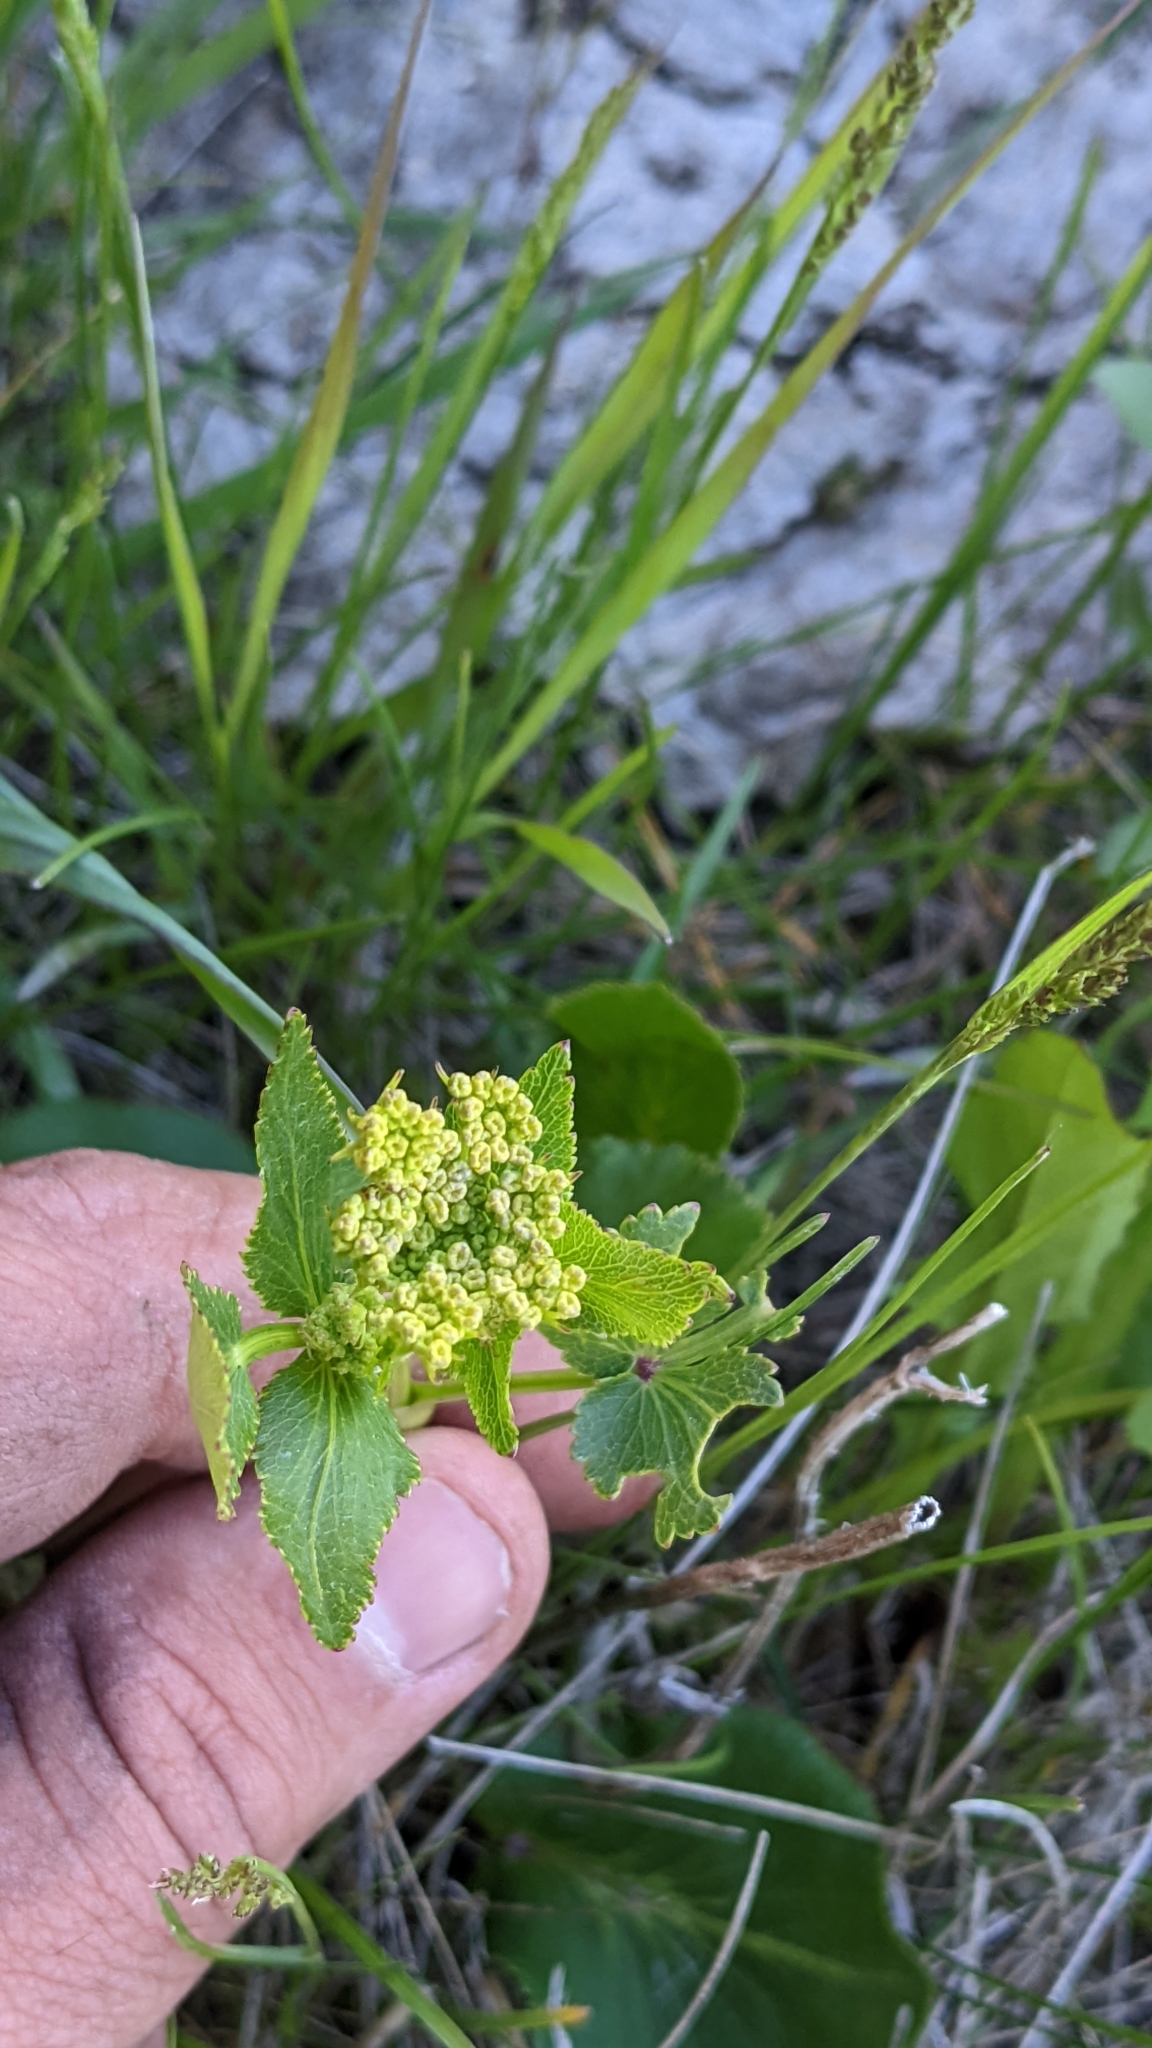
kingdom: Plantae
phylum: Tracheophyta
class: Magnoliopsida
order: Apiales
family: Apiaceae
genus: Zizia
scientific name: Zizia aptera
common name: Heart-leaved alexanders
